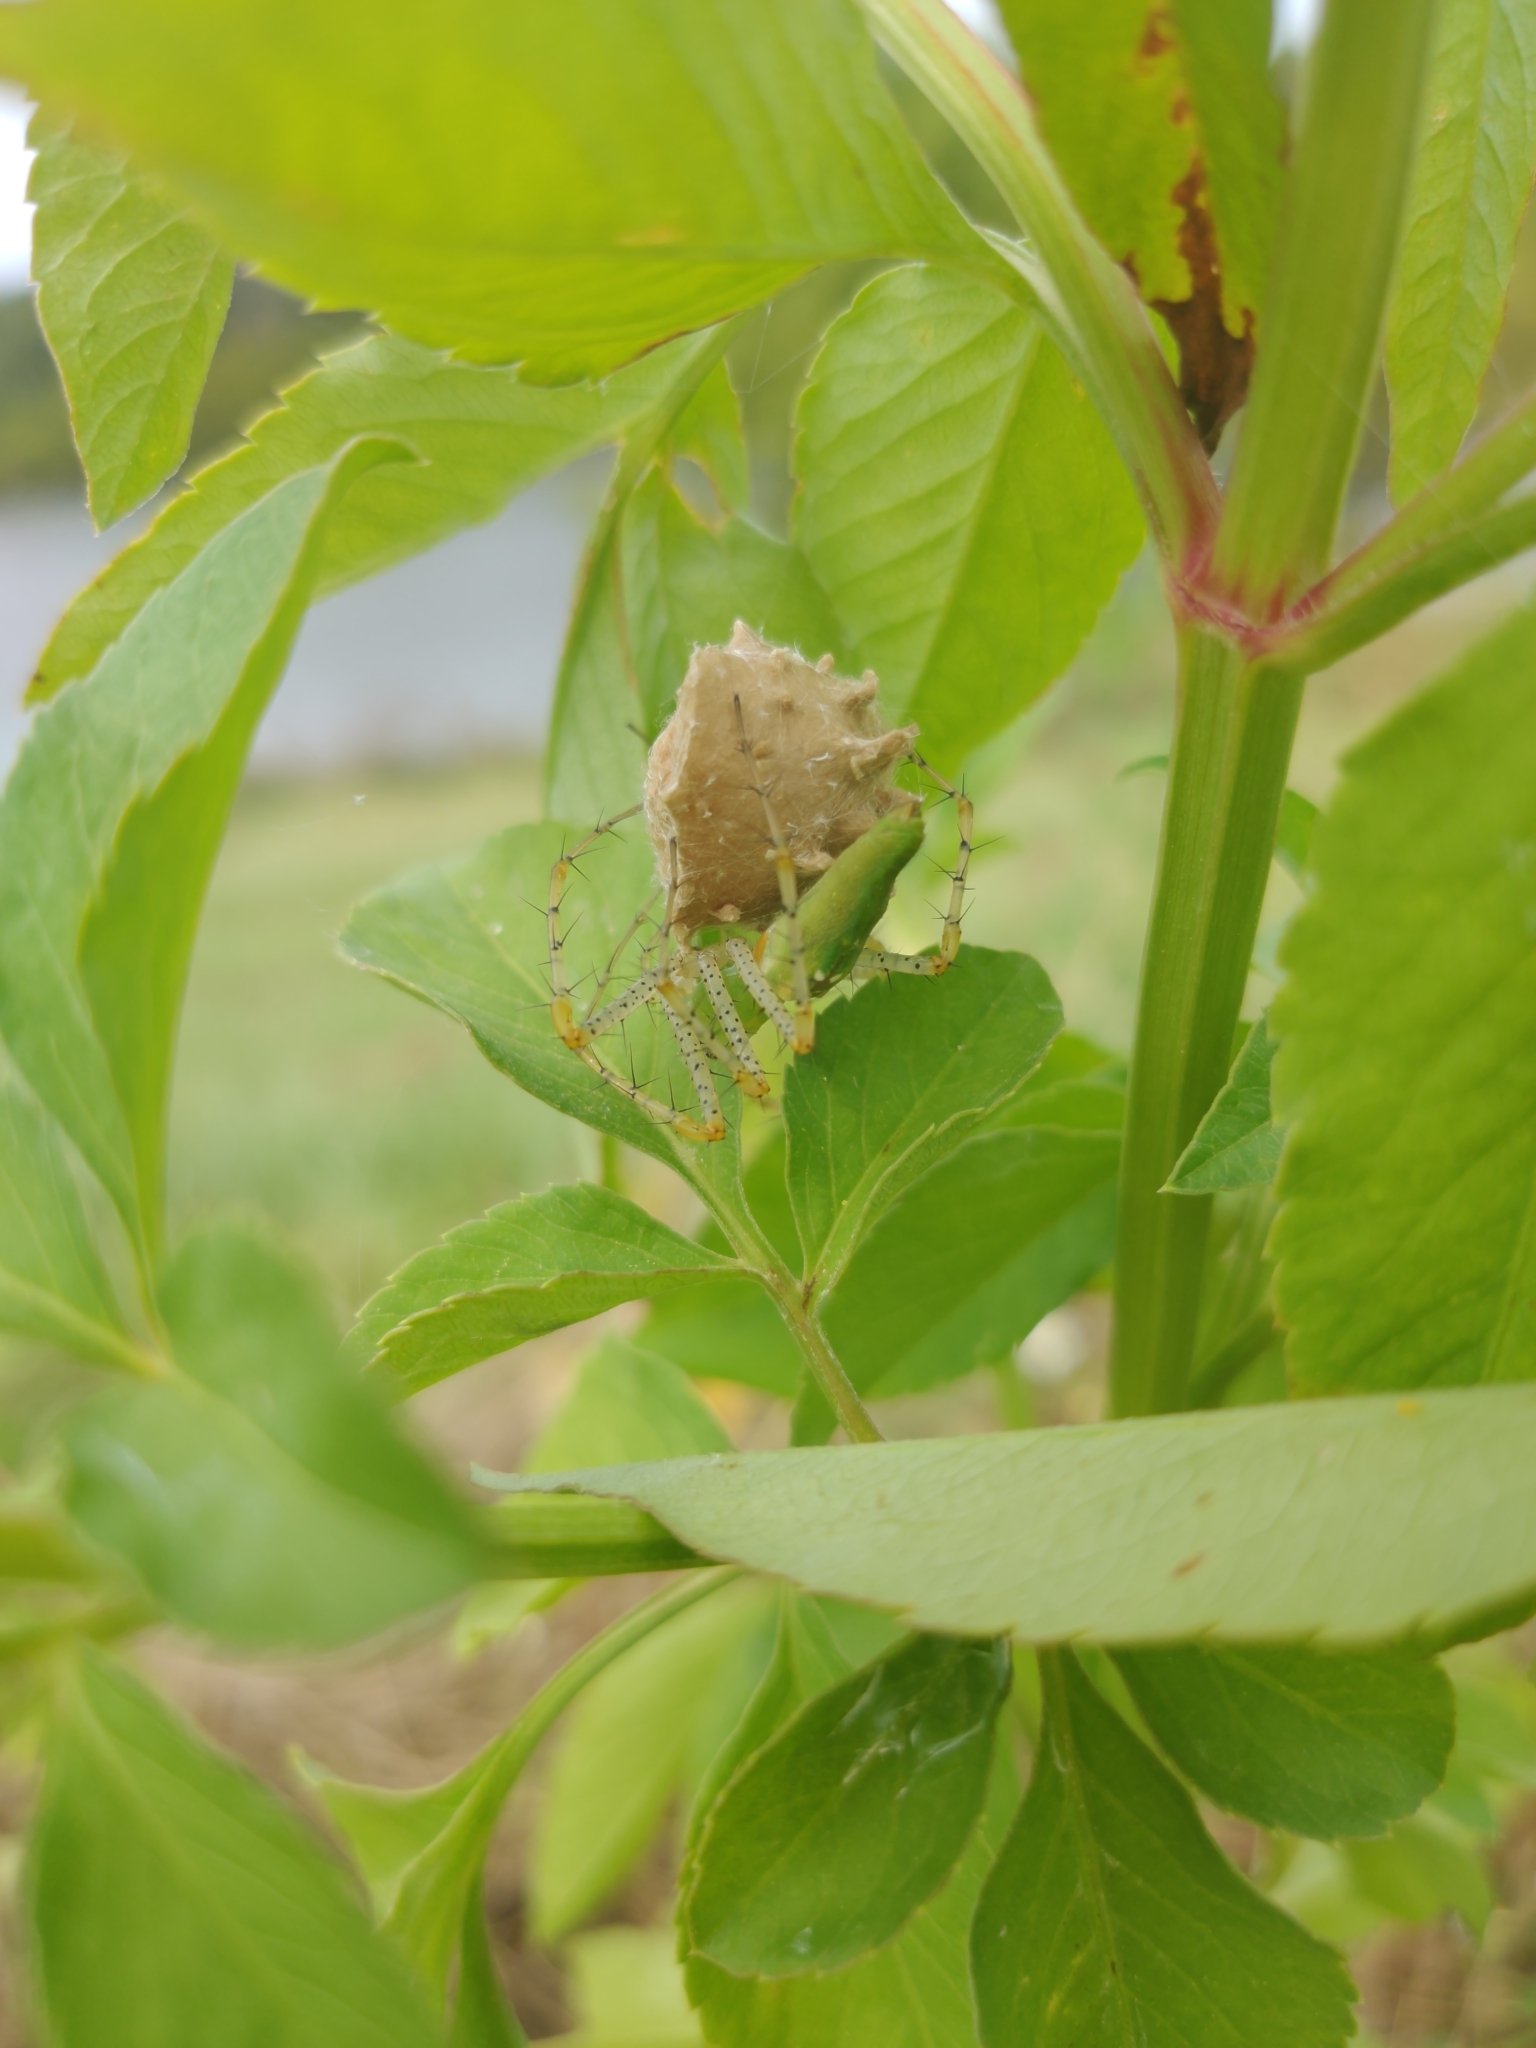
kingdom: Animalia
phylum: Arthropoda
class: Arachnida
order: Araneae
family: Oxyopidae
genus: Peucetia
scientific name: Peucetia viridans
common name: Lynx spiders
